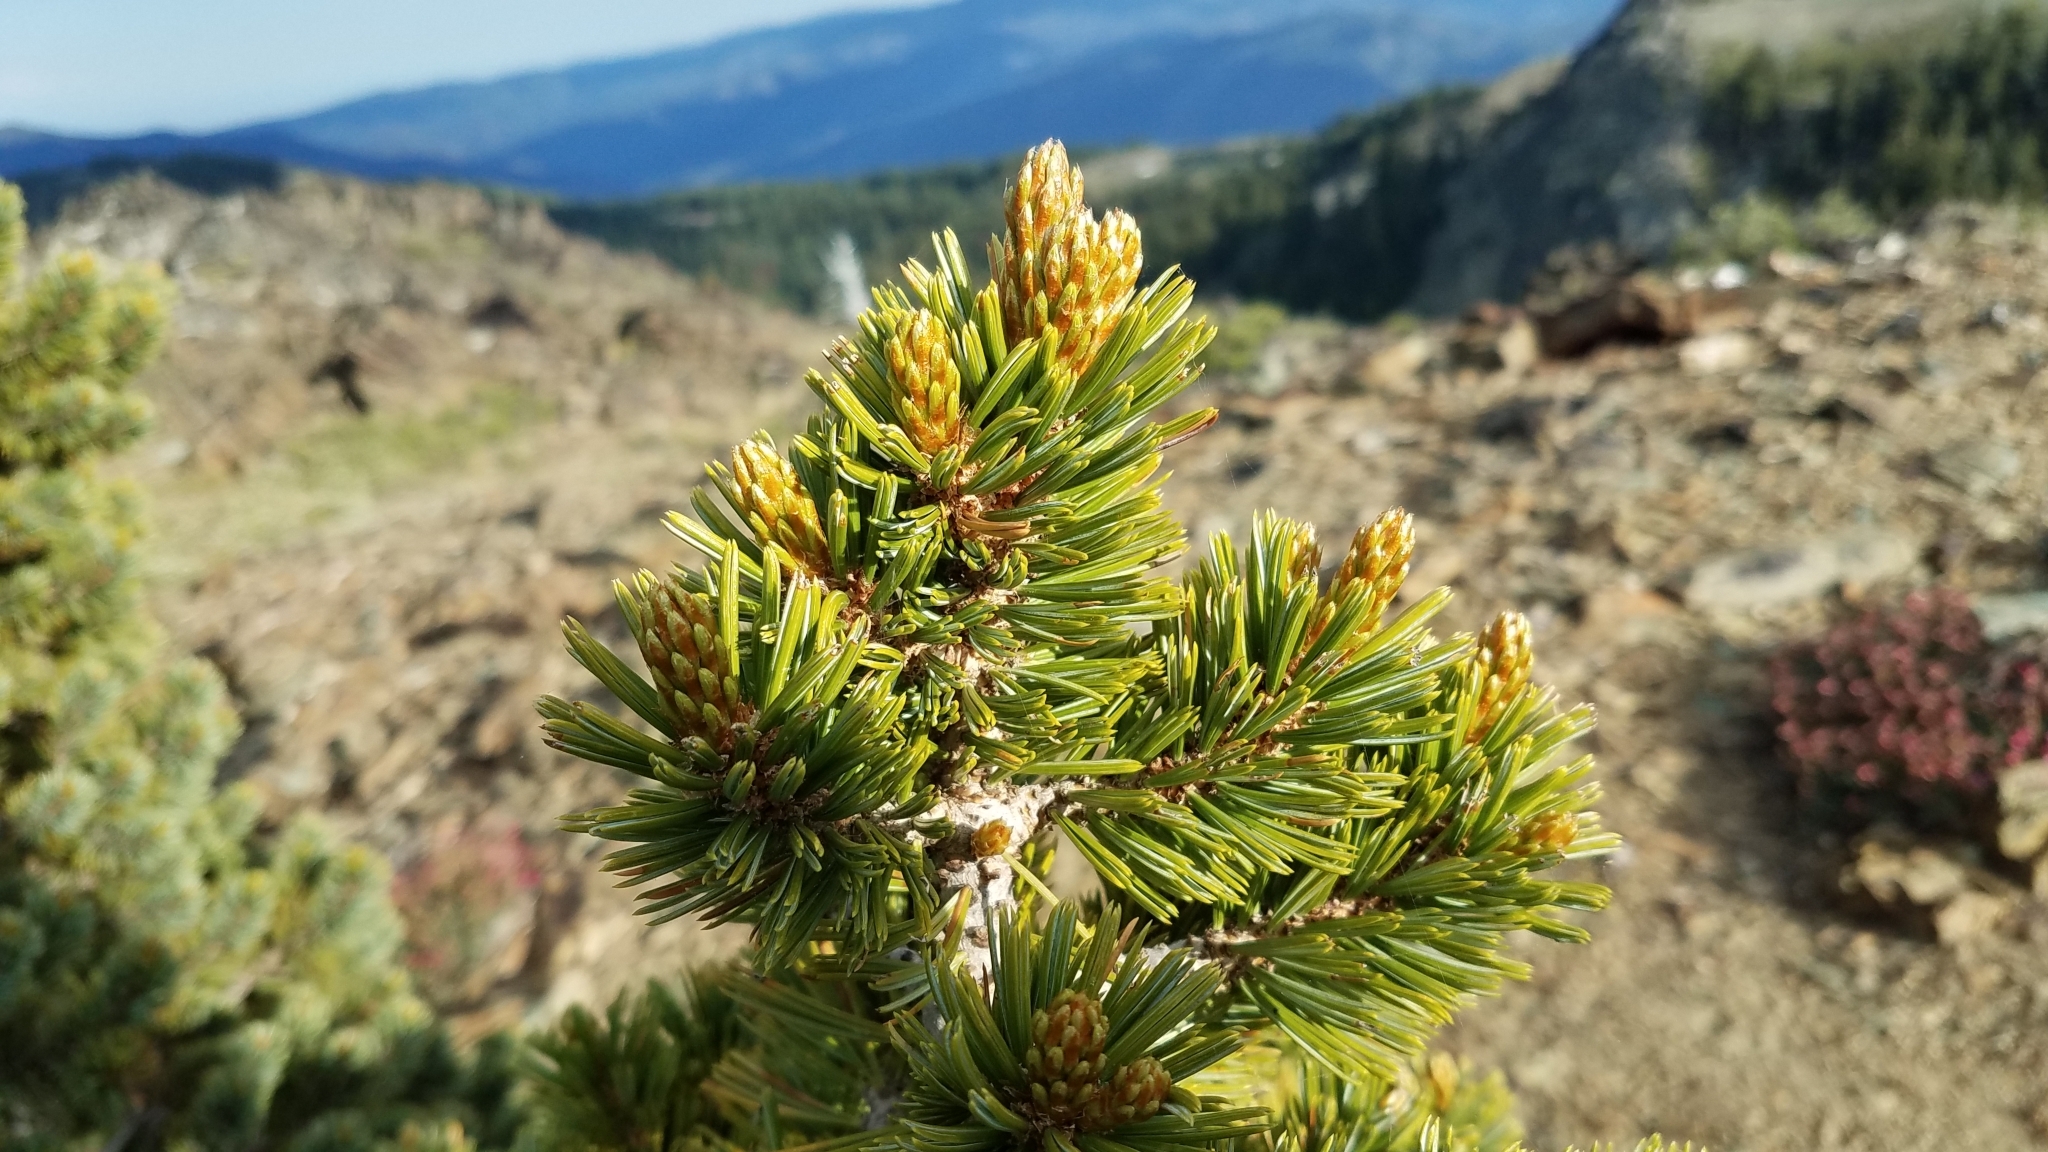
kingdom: Plantae
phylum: Tracheophyta
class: Pinopsida
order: Pinales
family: Pinaceae
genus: Pinus
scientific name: Pinus balfouriana
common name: Foxtail pine
